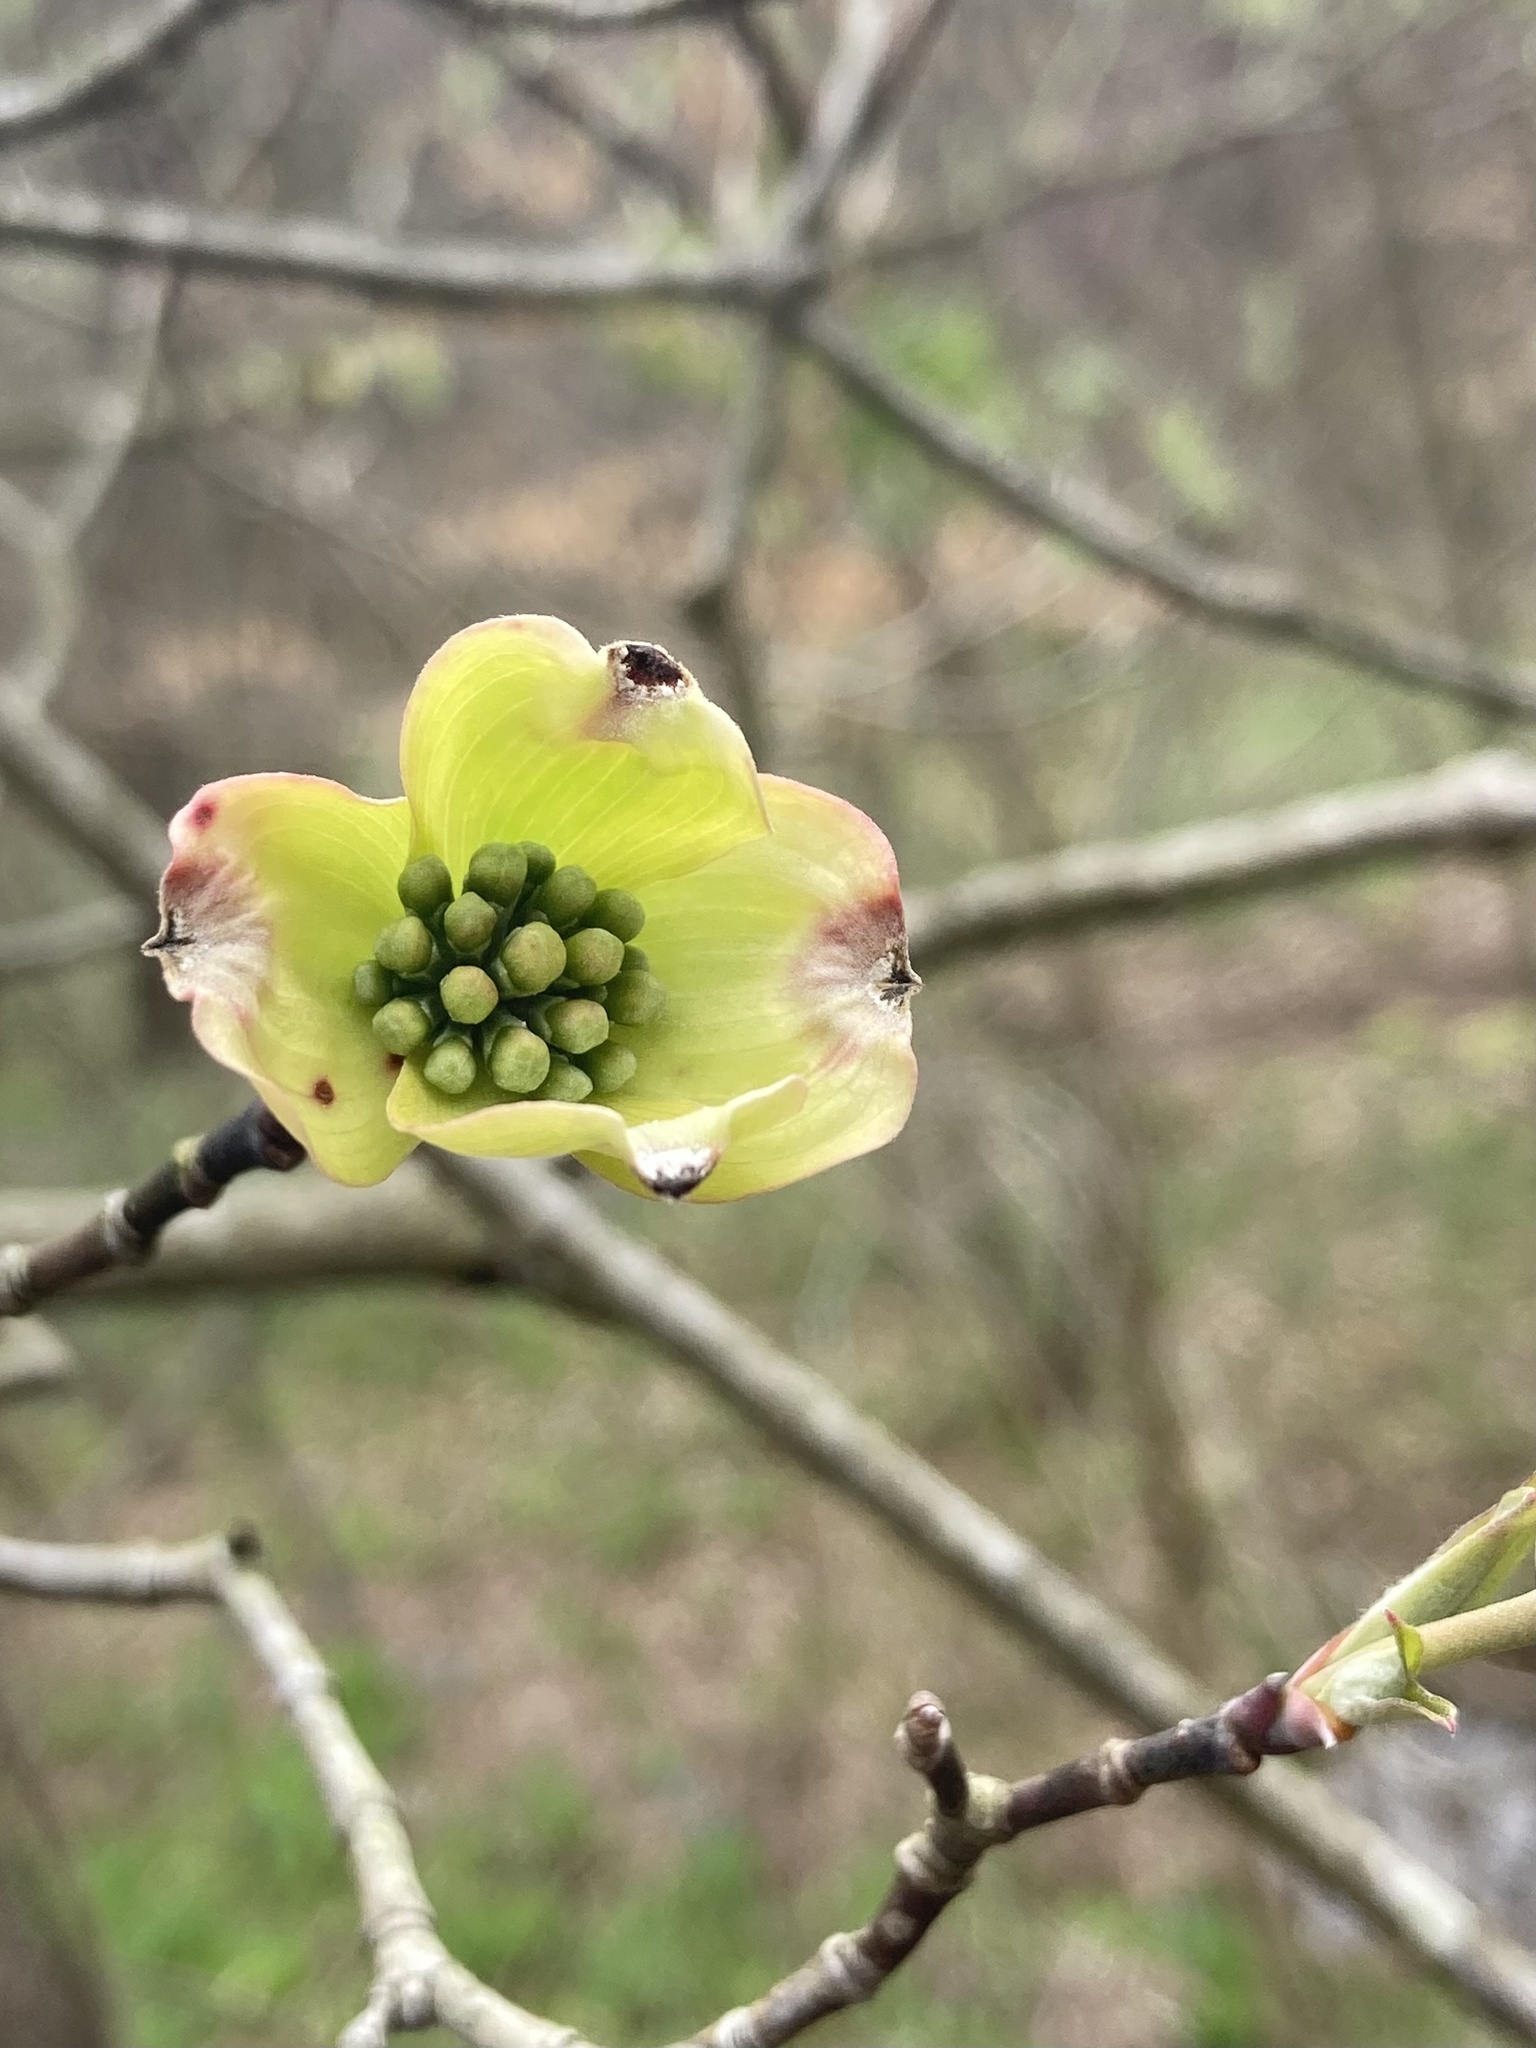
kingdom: Plantae
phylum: Tracheophyta
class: Magnoliopsida
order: Cornales
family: Cornaceae
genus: Cornus
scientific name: Cornus florida
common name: Flowering dogwood
